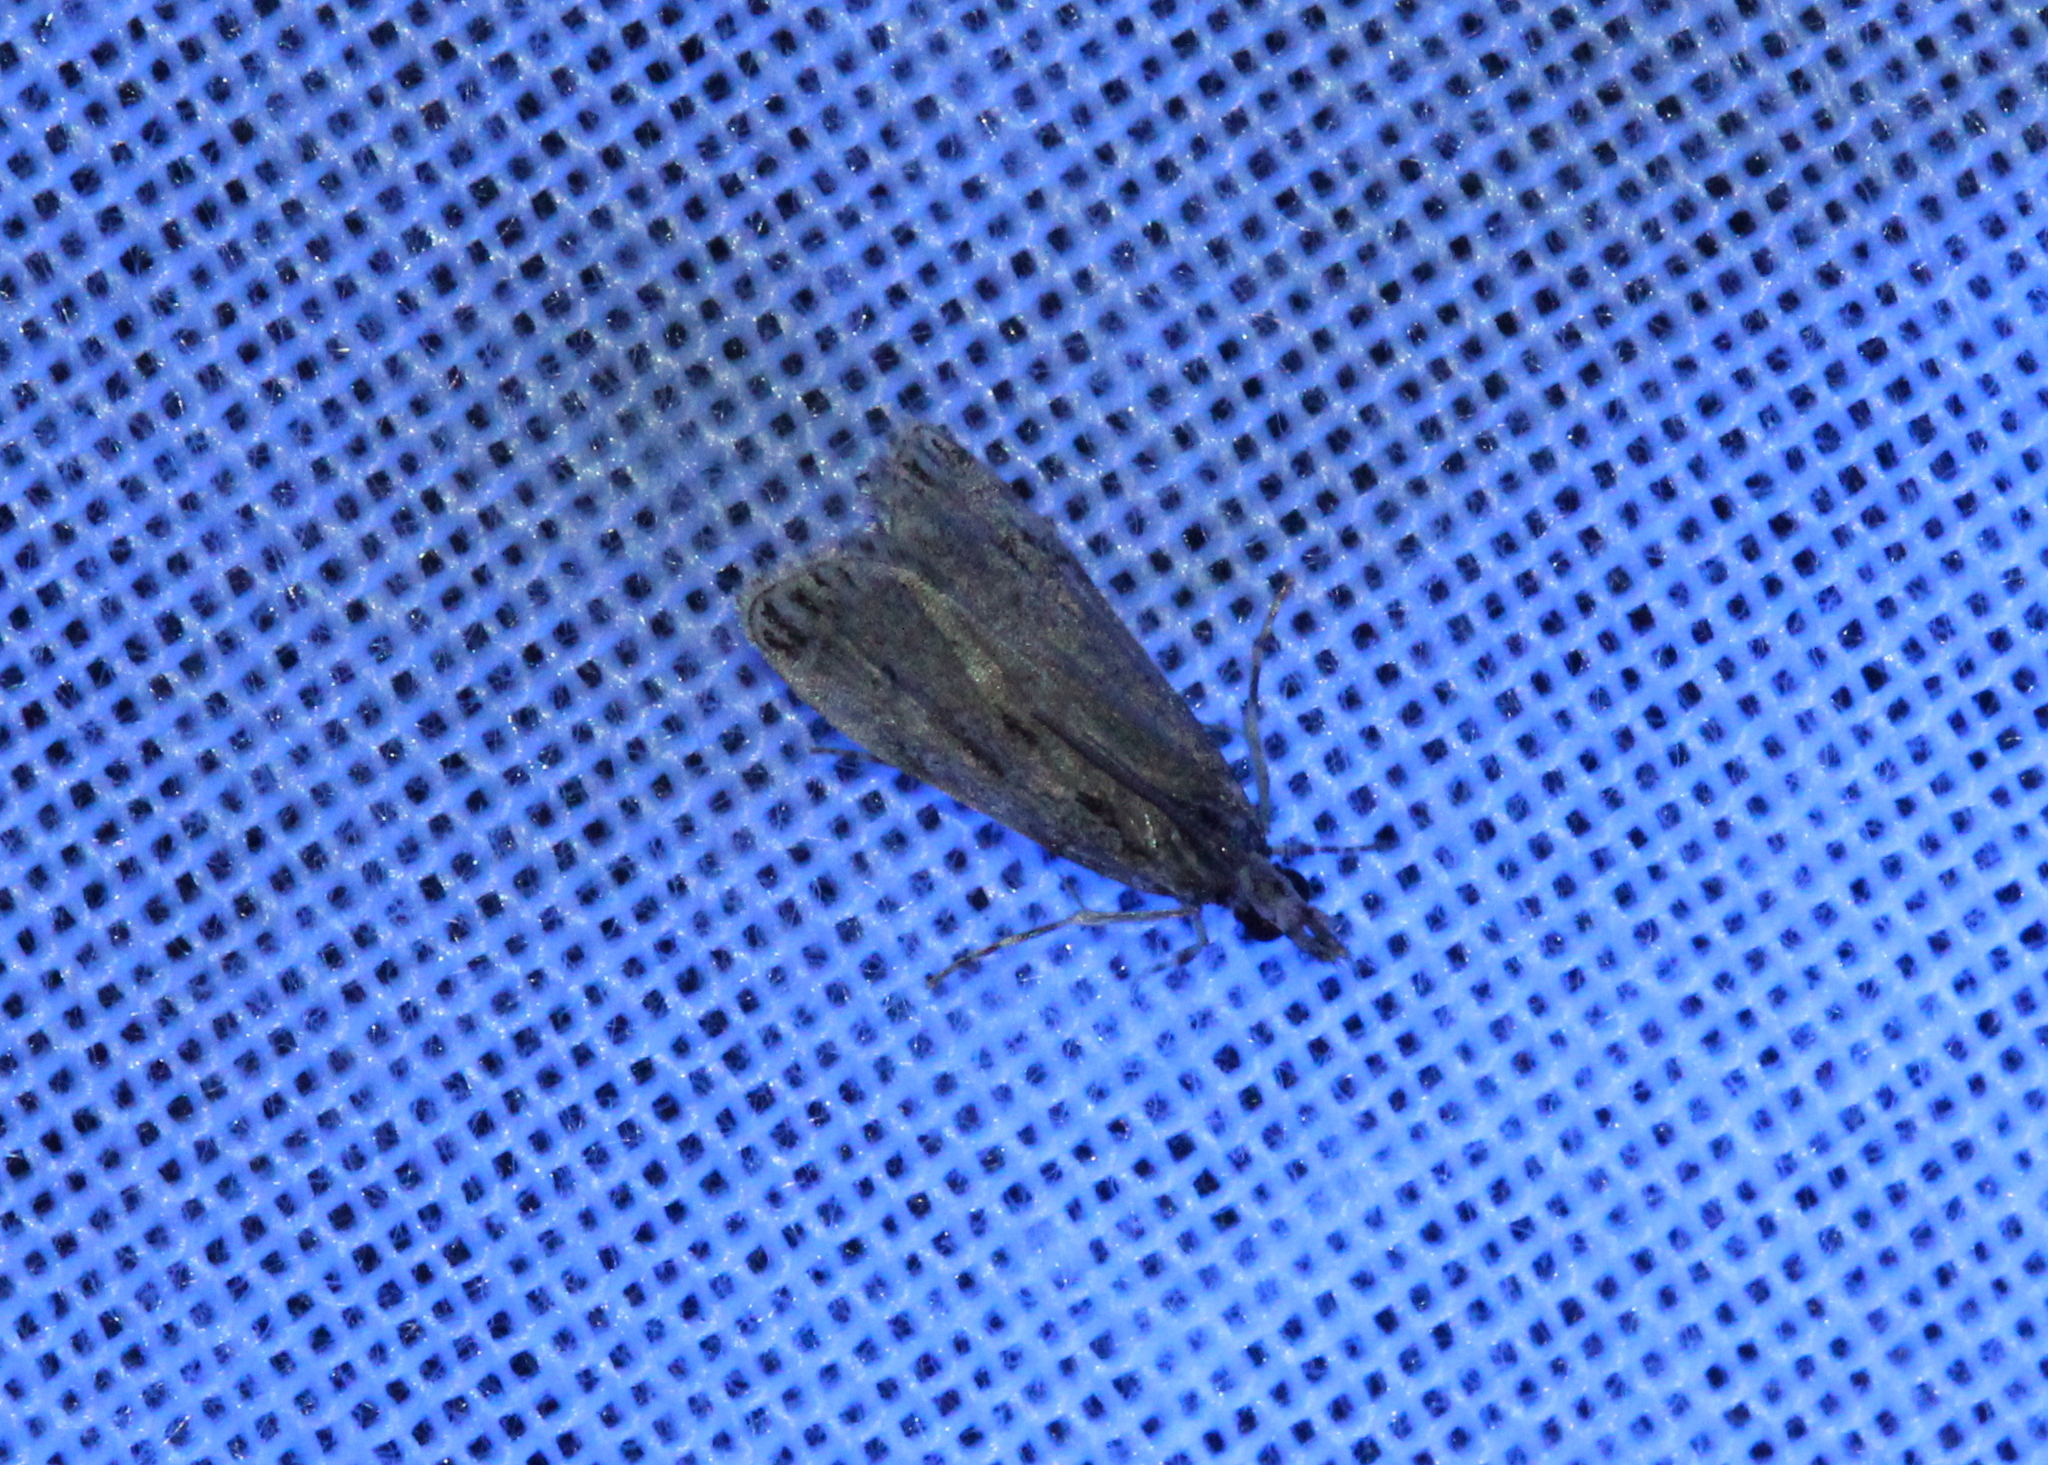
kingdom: Animalia
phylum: Arthropoda
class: Insecta
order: Lepidoptera
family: Crambidae
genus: Eudonia
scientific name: Eudonia strigalis
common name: Striped eudonia moth
